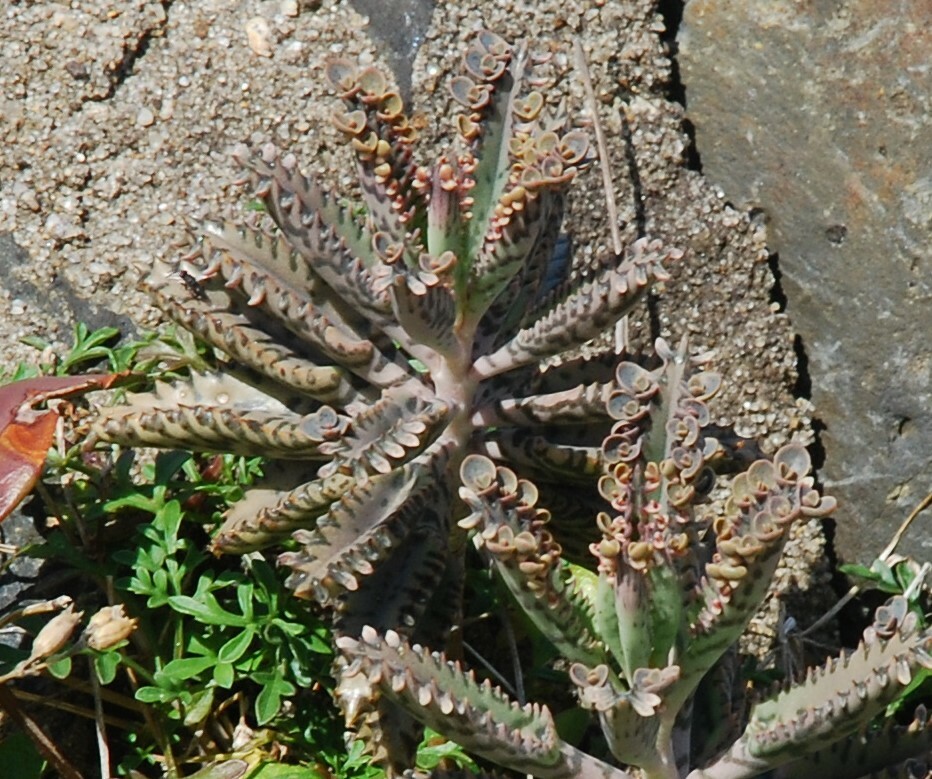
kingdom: Plantae
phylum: Tracheophyta
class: Magnoliopsida
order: Saxifragales
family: Crassulaceae
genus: Kalanchoe
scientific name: Kalanchoe houghtonii
